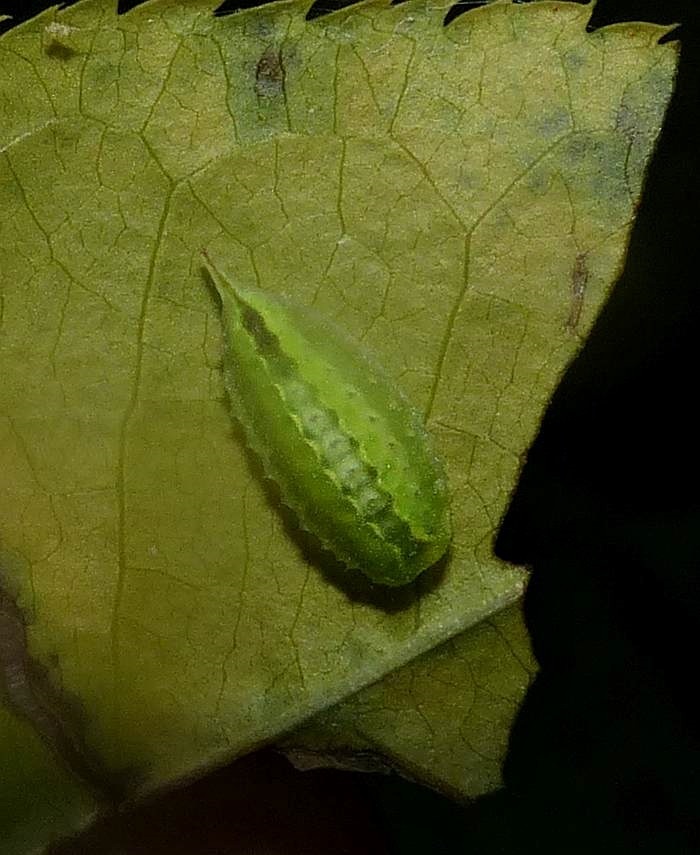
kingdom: Animalia
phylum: Arthropoda
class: Insecta
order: Lepidoptera
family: Limacodidae
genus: Packardia
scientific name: Packardia elegans
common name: Elegant tailed slug moth
